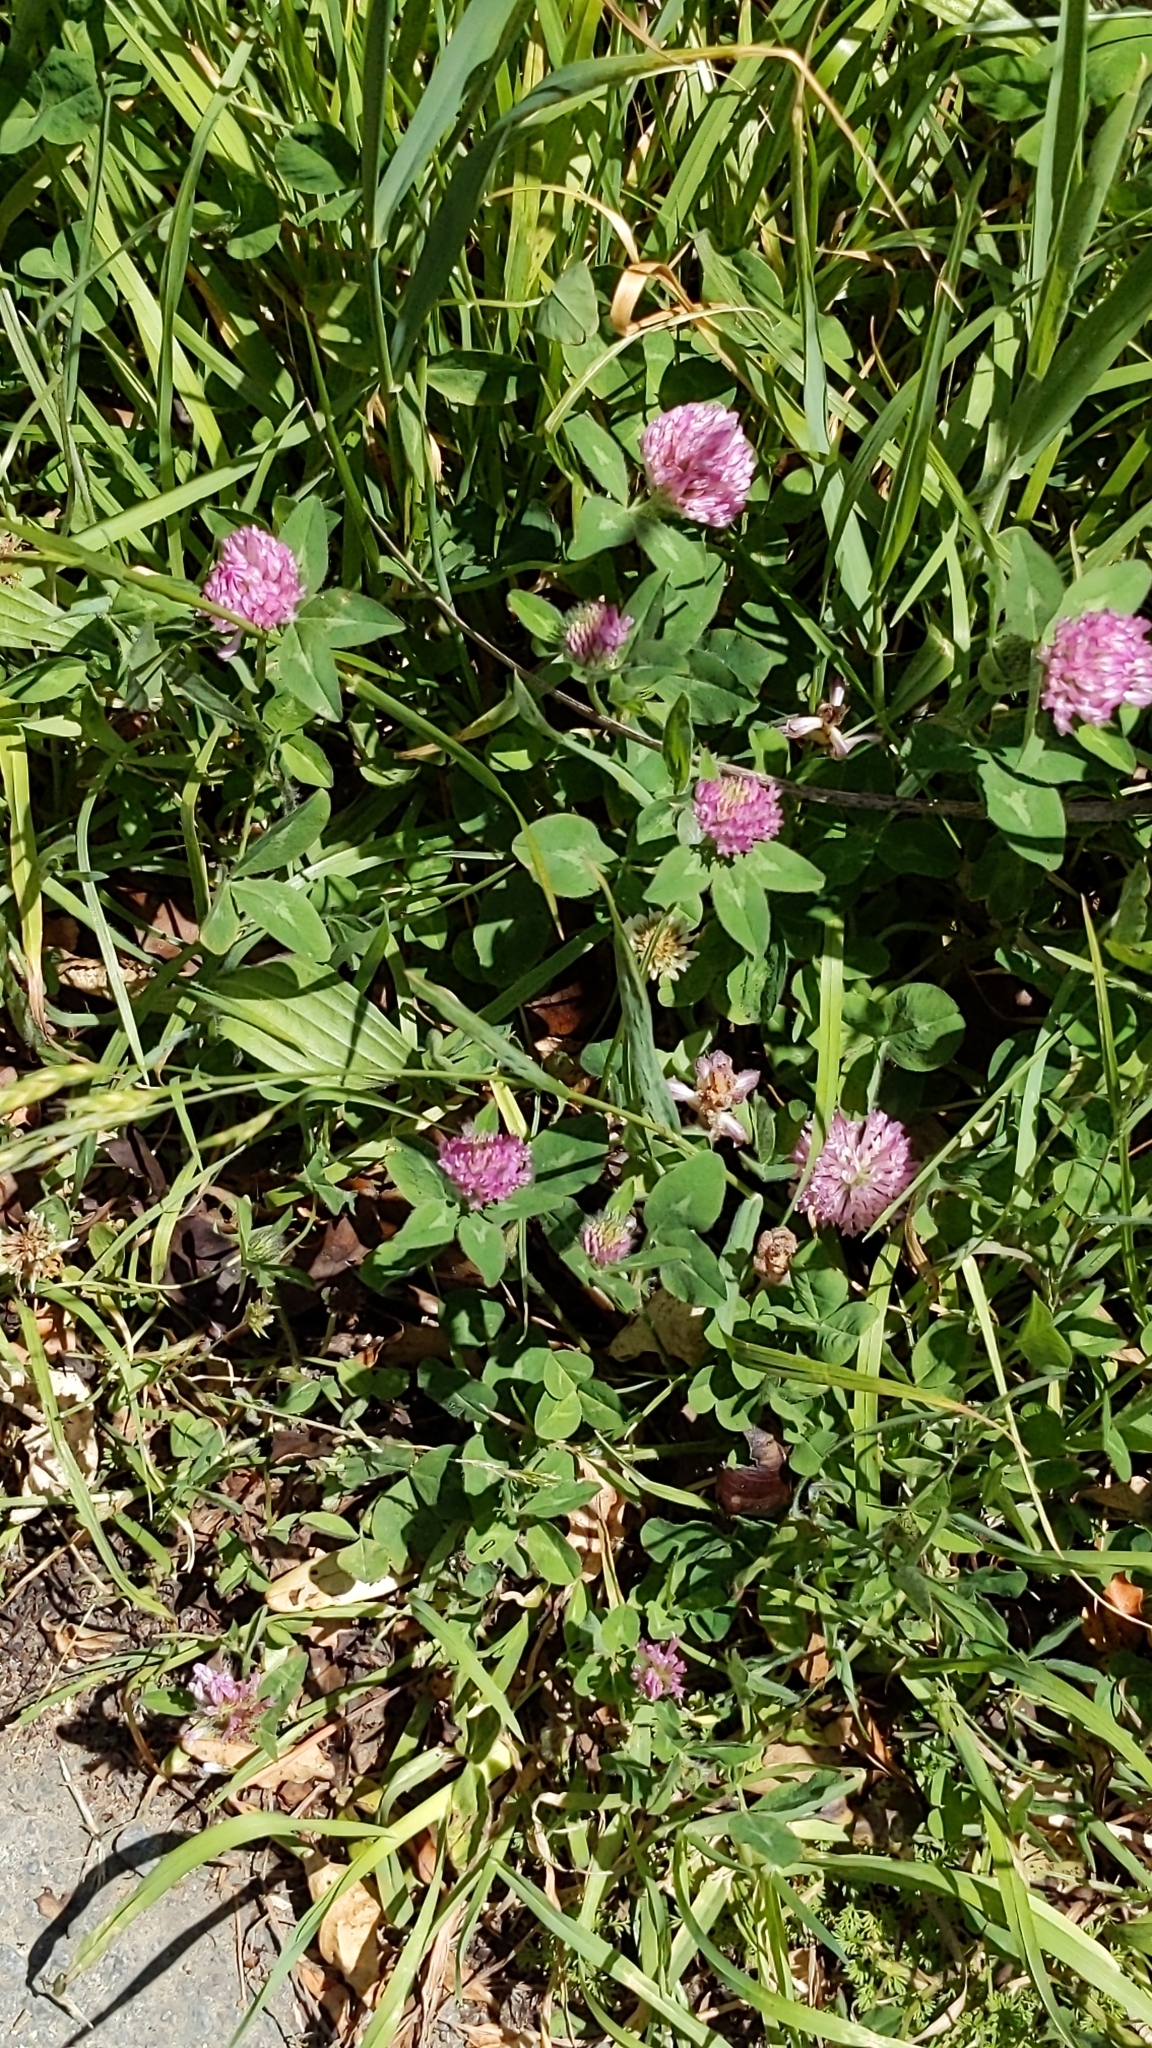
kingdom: Plantae
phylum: Tracheophyta
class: Magnoliopsida
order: Fabales
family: Fabaceae
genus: Trifolium
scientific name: Trifolium pratense
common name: Red clover
